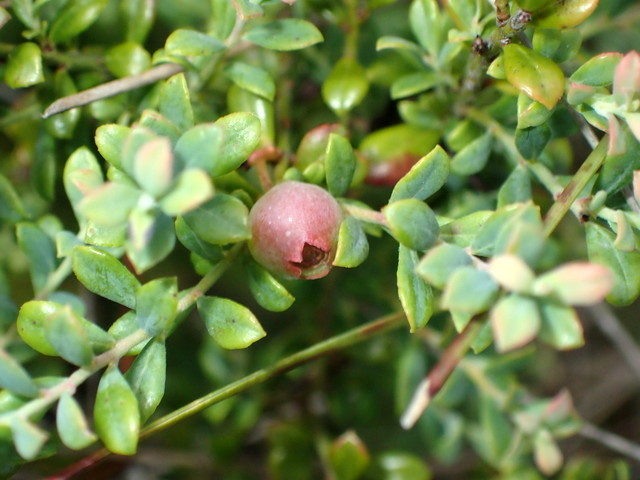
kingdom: Plantae
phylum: Tracheophyta
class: Magnoliopsida
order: Ericales
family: Ericaceae
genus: Vaccinium
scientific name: Vaccinium darrowii
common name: Darrow's blueberry
